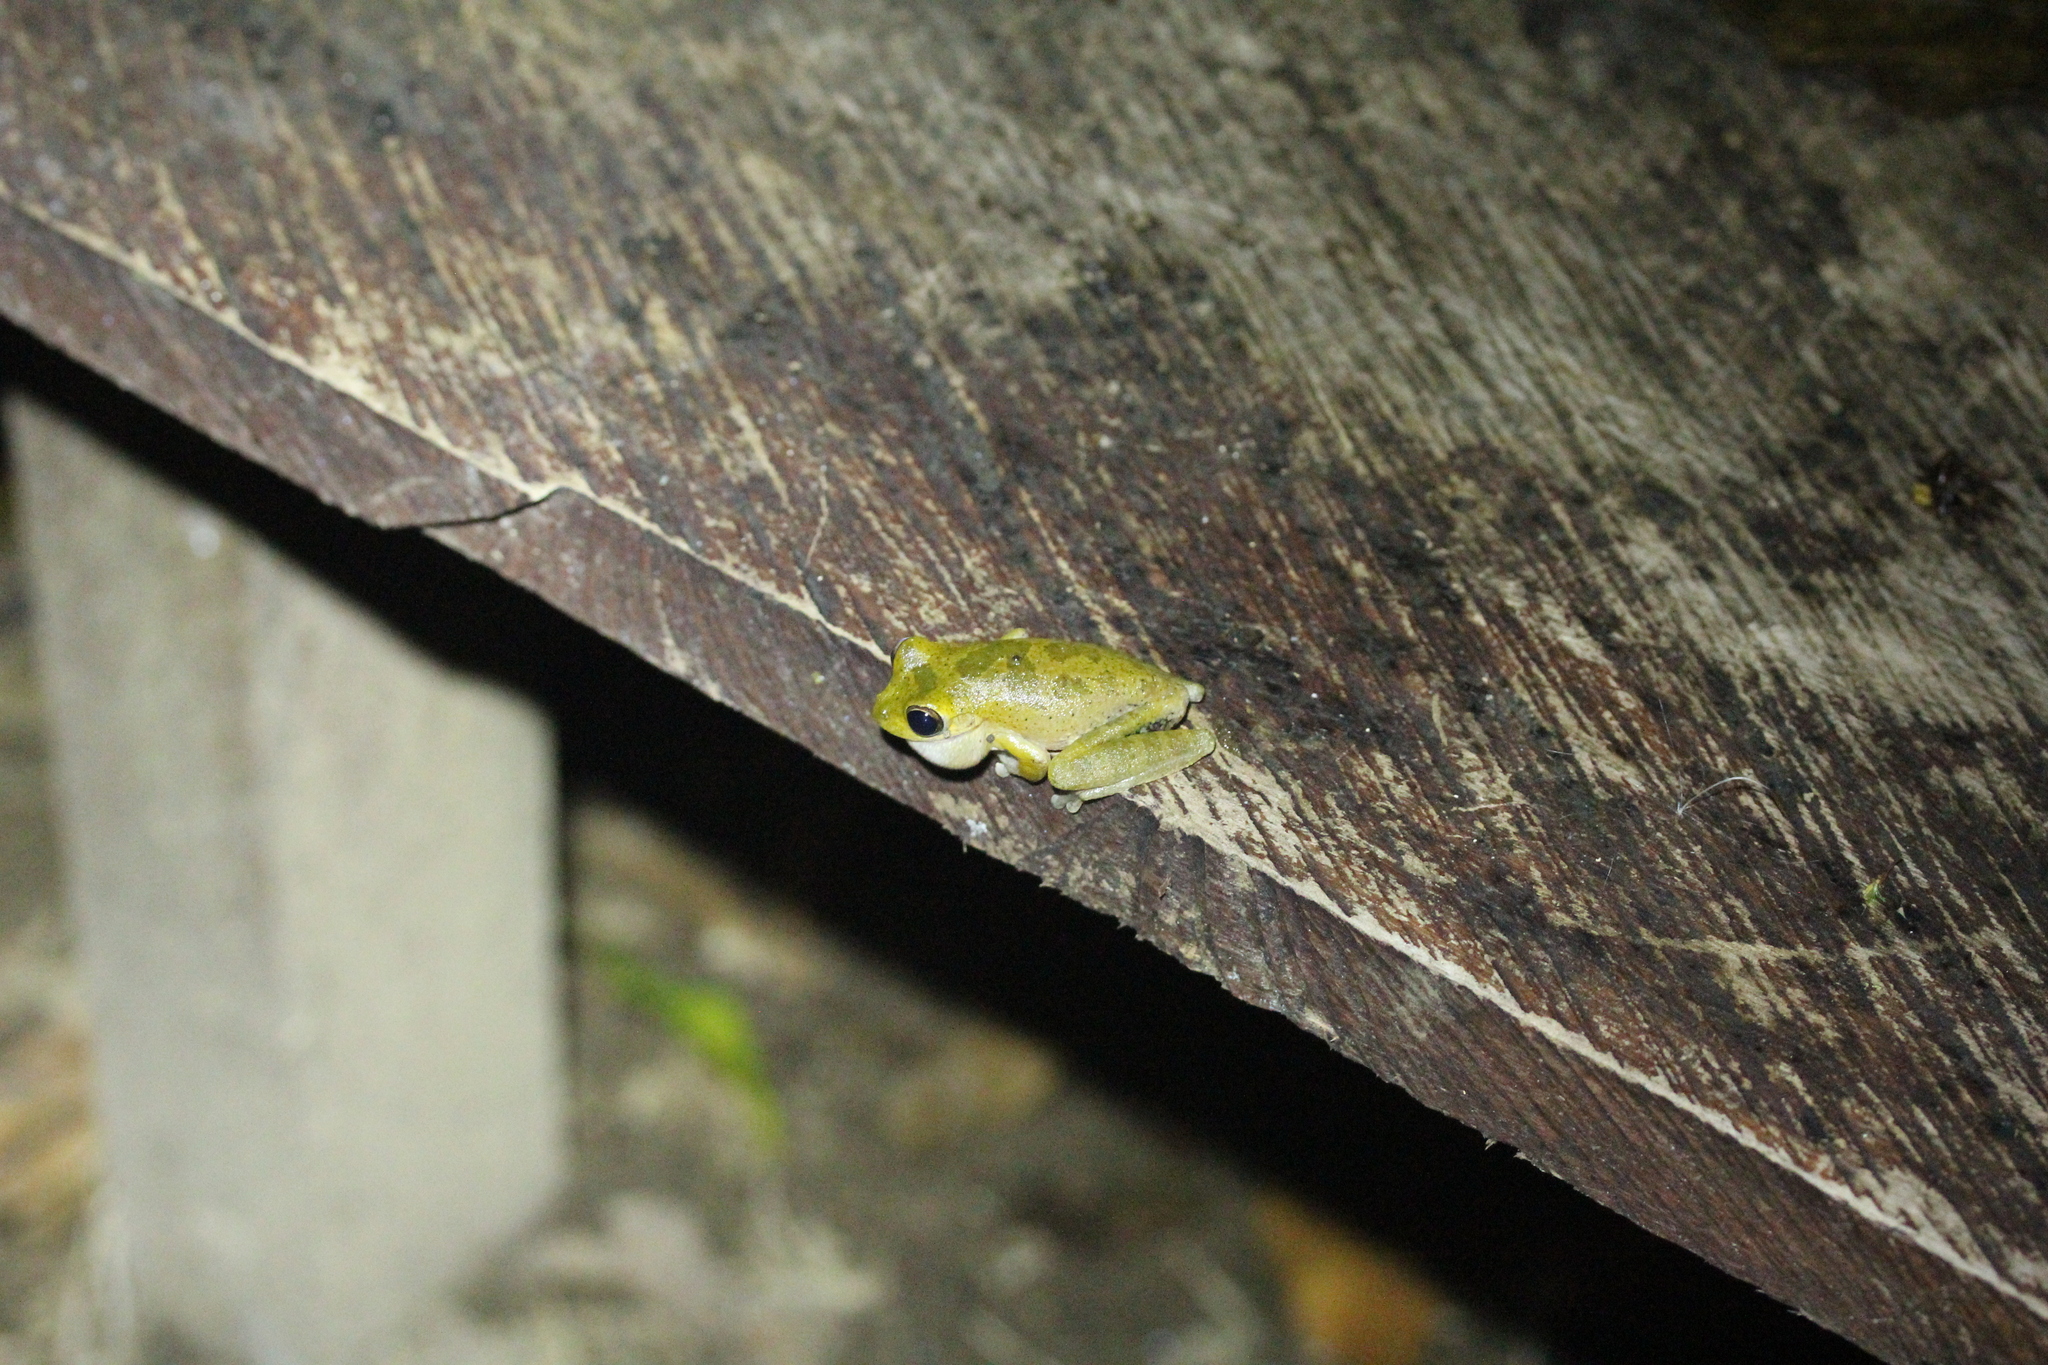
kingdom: Animalia
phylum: Chordata
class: Amphibia
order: Anura
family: Hylidae
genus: Smilisca
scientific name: Smilisca sordida
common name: Veragua cross-banded treefrog
